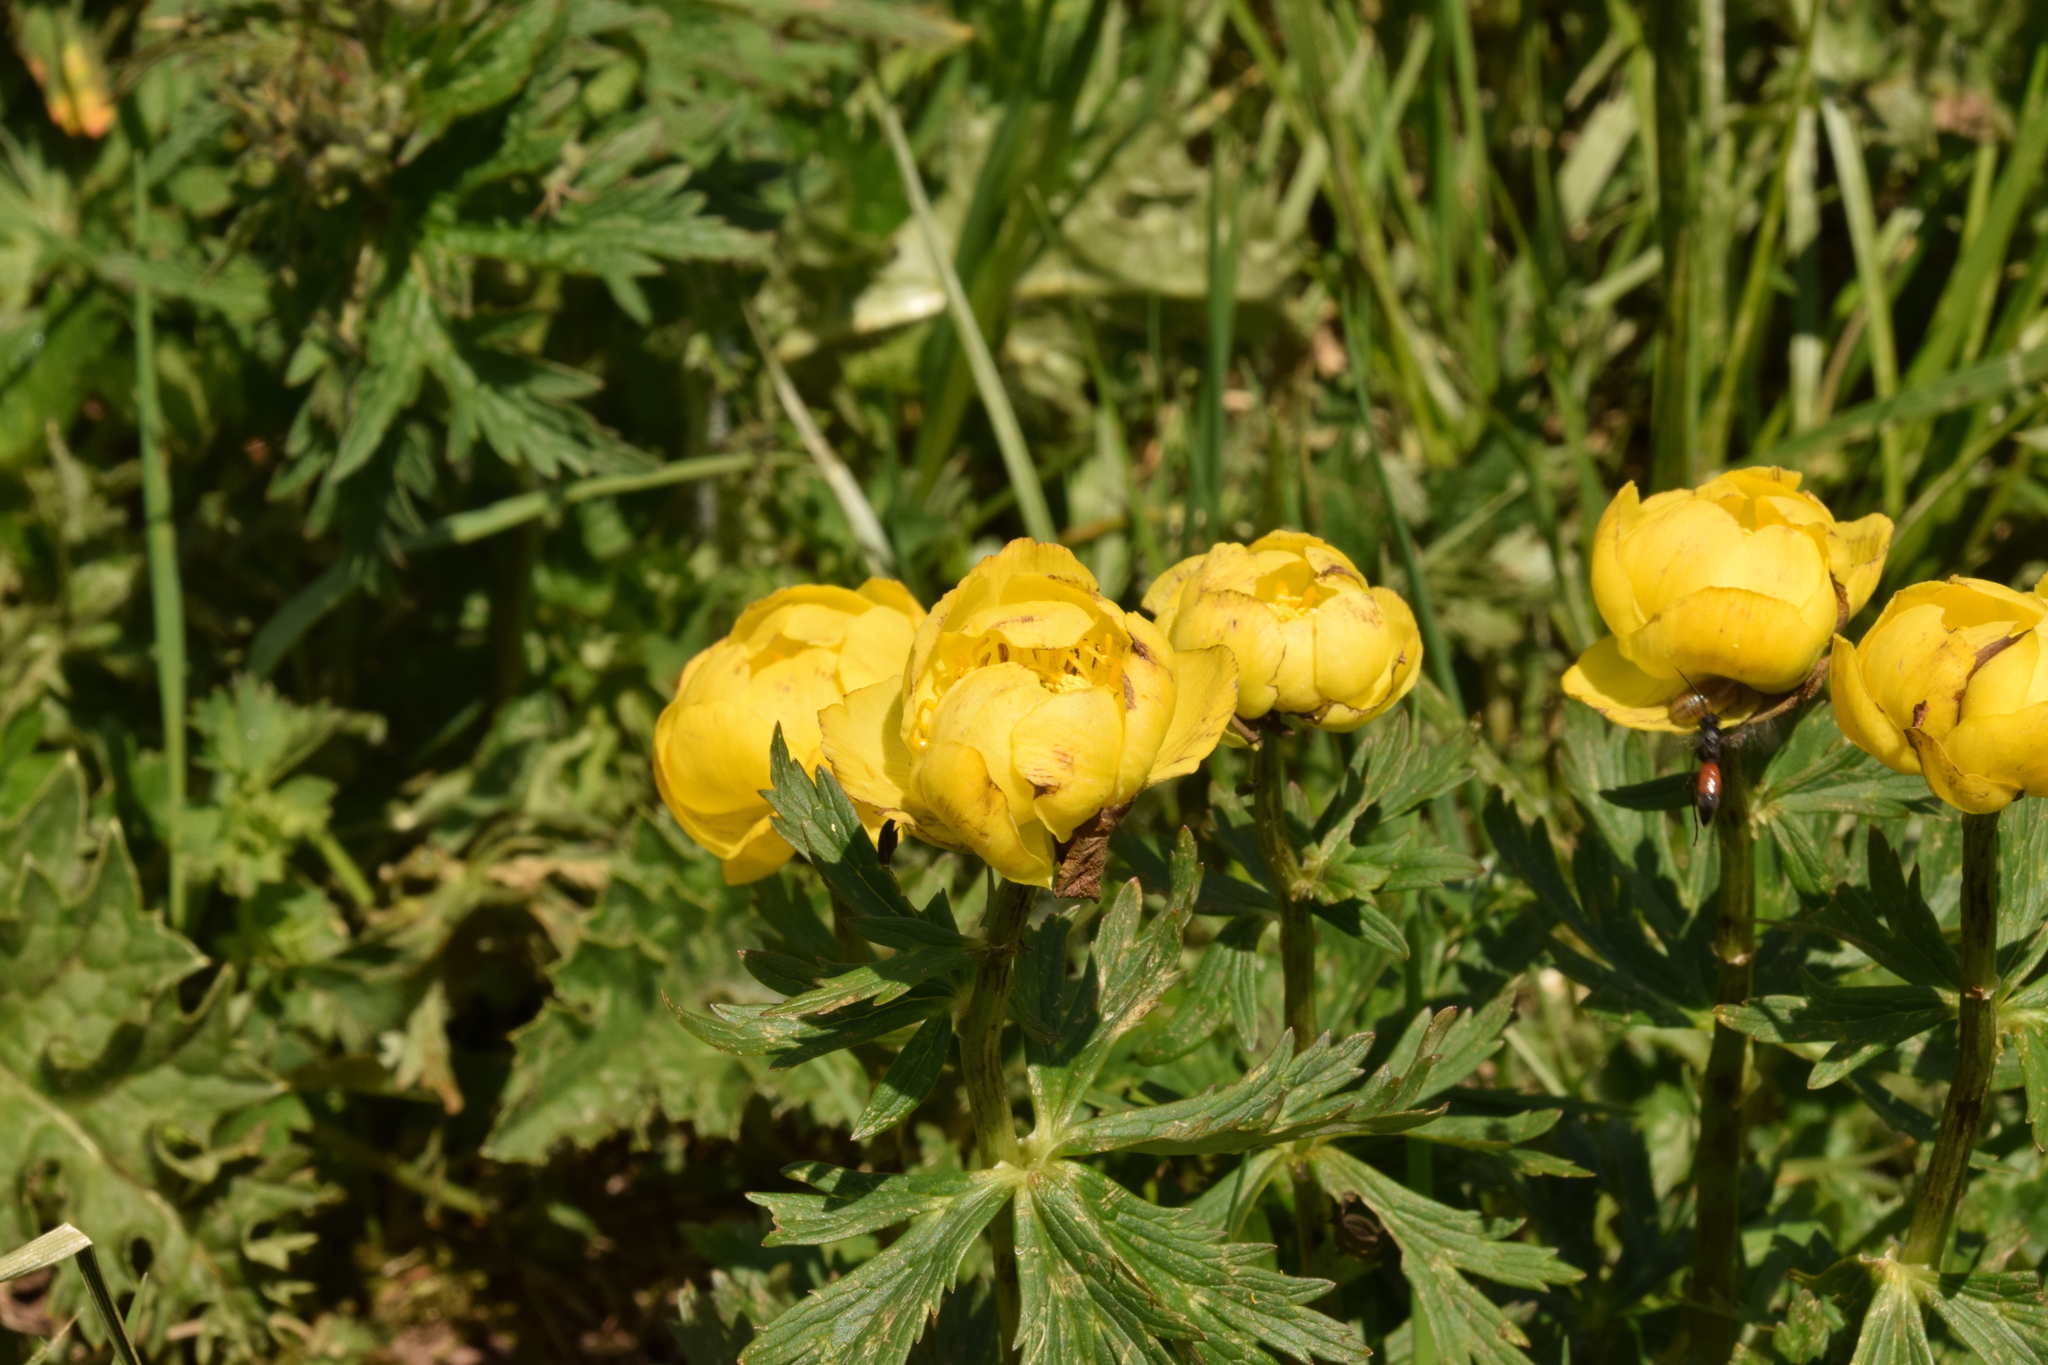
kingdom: Plantae
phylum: Tracheophyta
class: Magnoliopsida
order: Ranunculales
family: Ranunculaceae
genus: Trollius
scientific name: Trollius europaeus
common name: European globeflower
